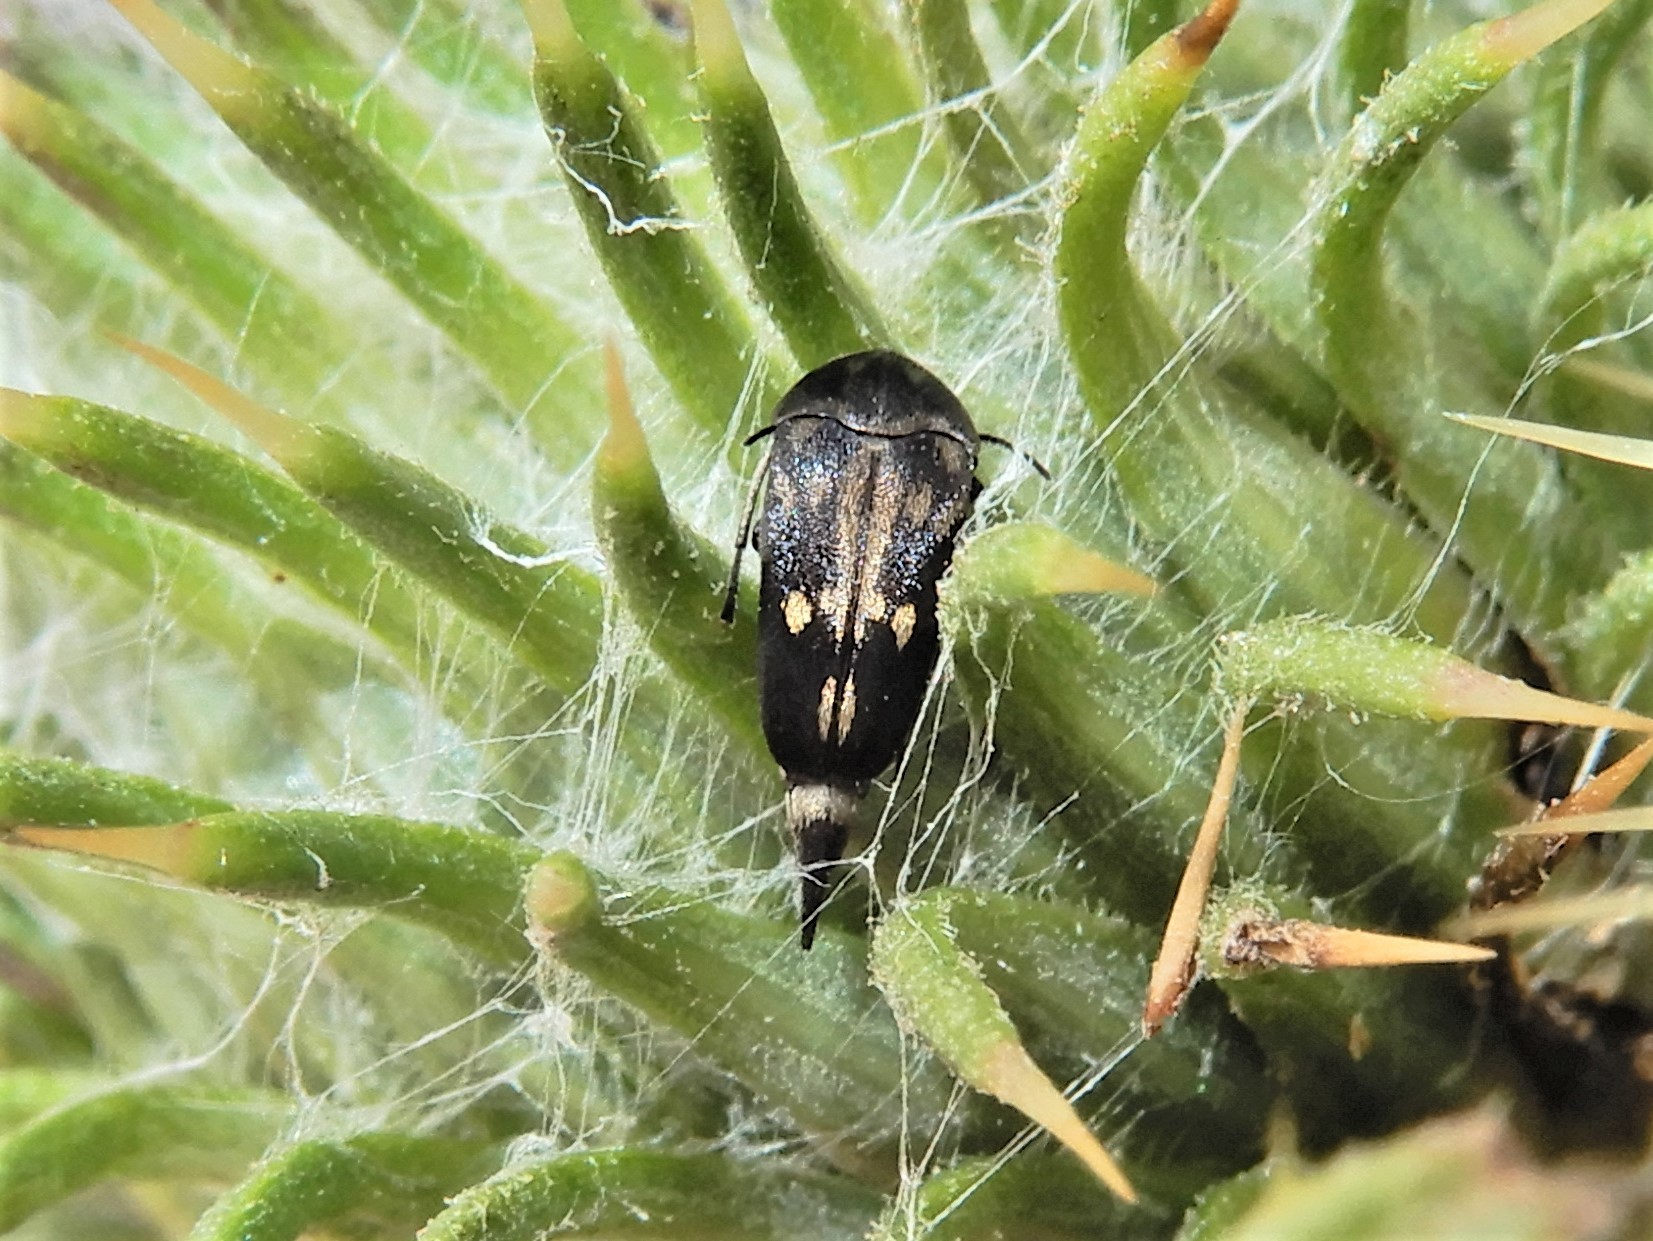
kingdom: Animalia
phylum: Arthropoda
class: Insecta
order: Coleoptera
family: Mordellidae
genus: Zeamordella
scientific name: Zeamordella monacha
